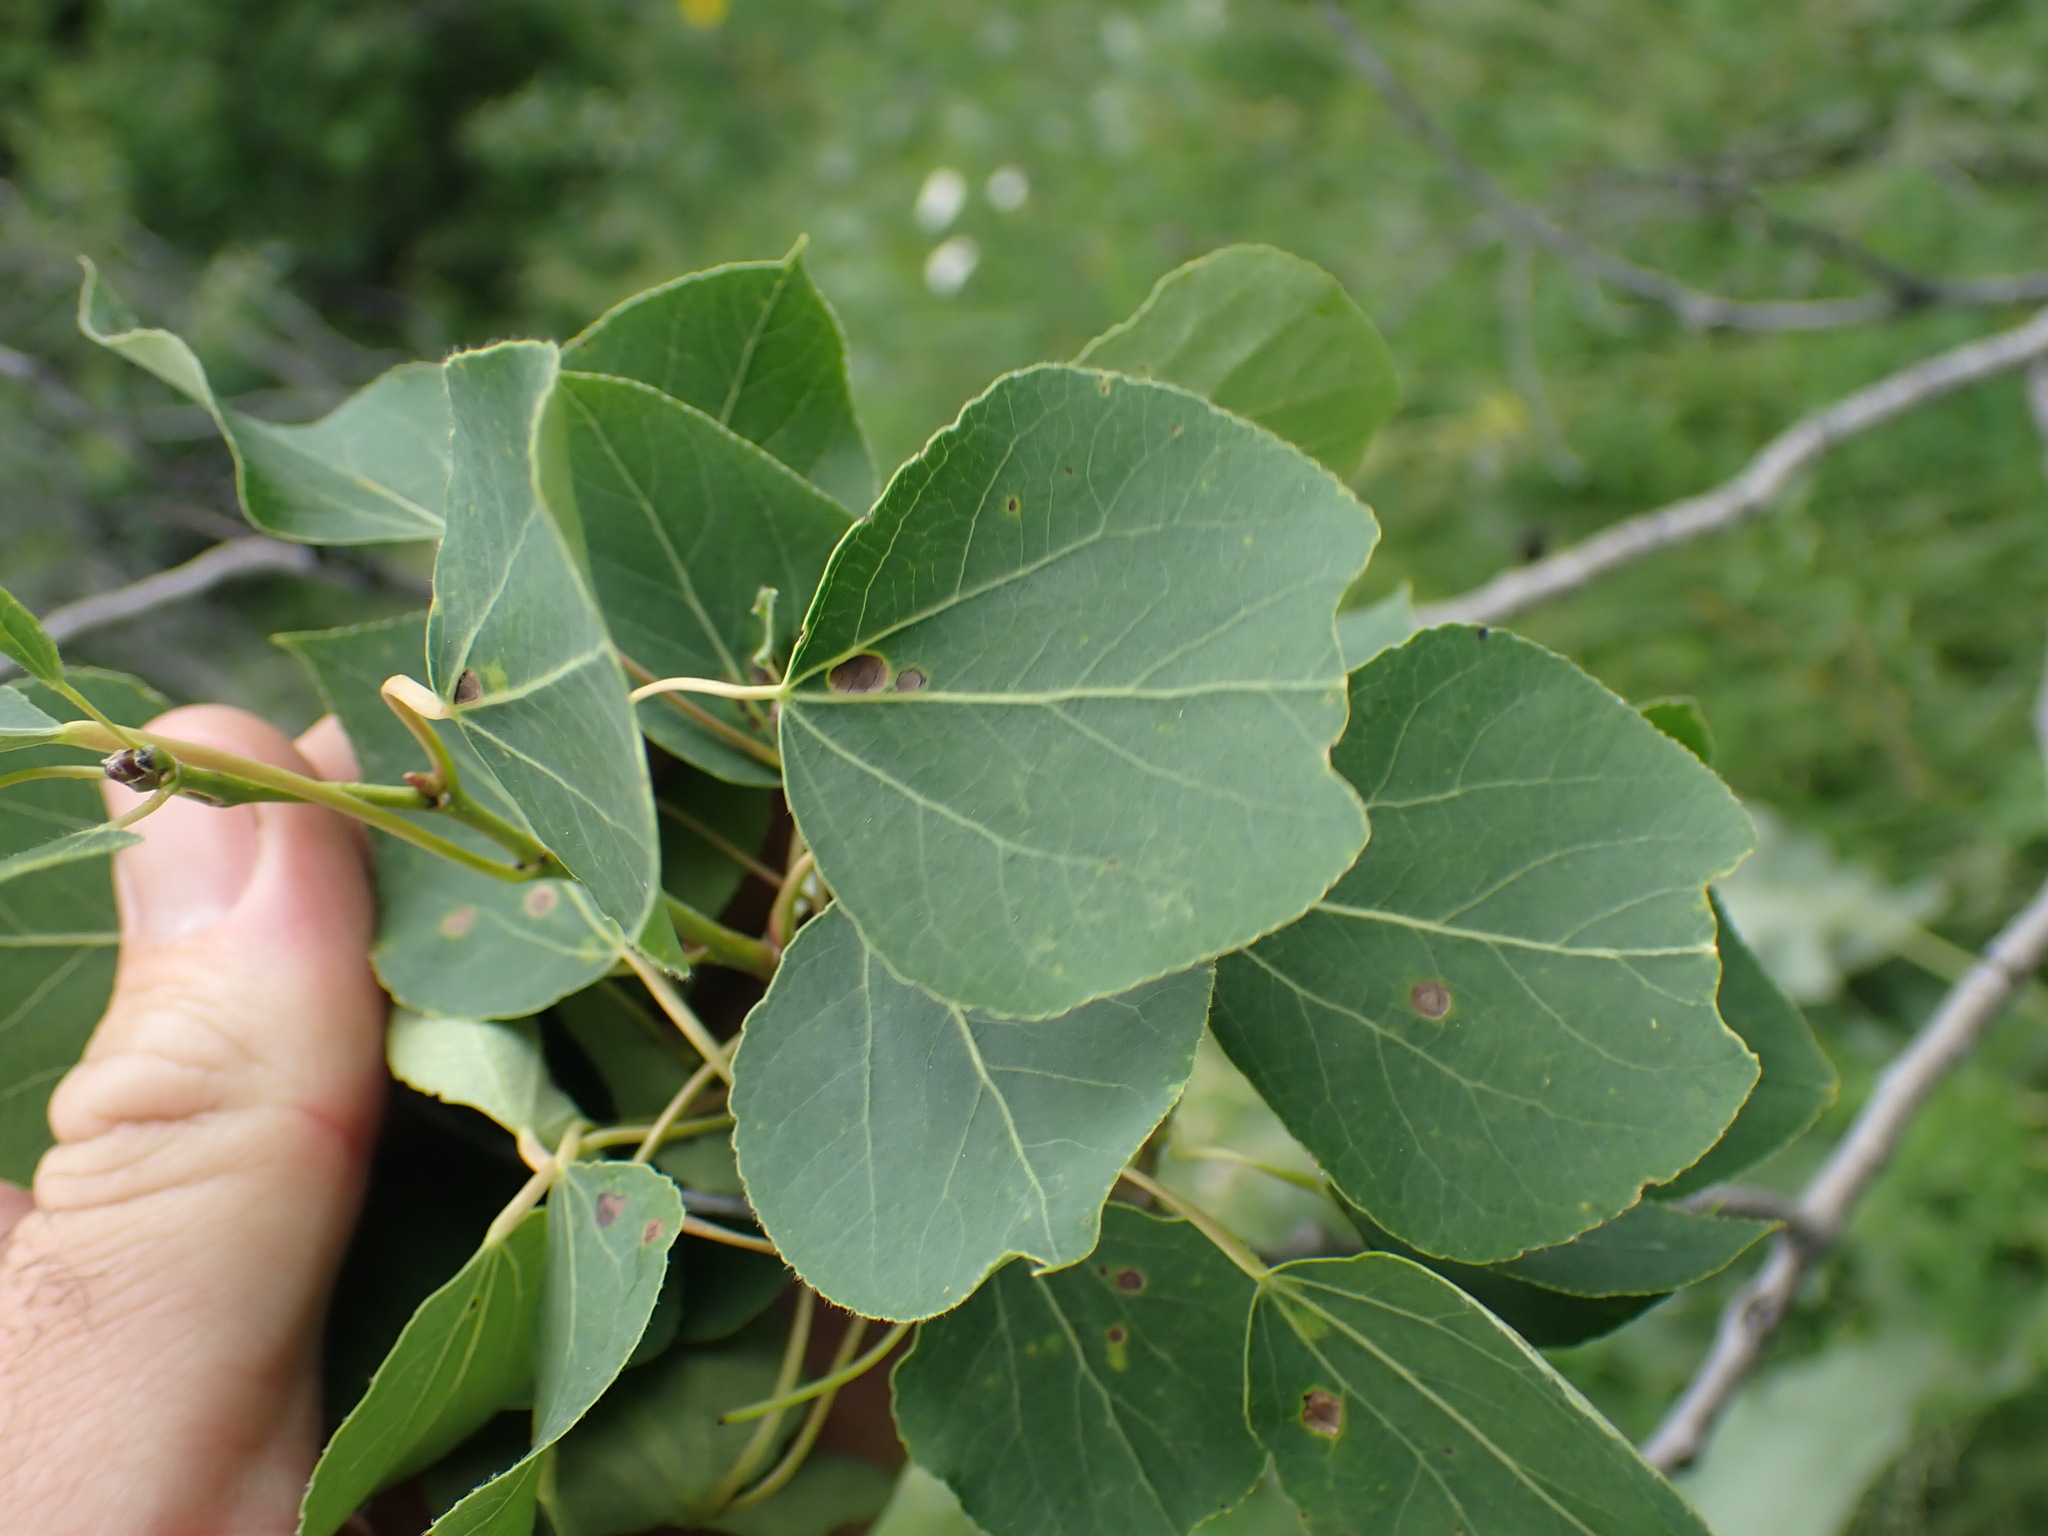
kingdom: Plantae
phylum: Tracheophyta
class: Magnoliopsida
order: Malpighiales
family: Salicaceae
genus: Populus
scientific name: Populus tremuloides
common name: Quaking aspen
